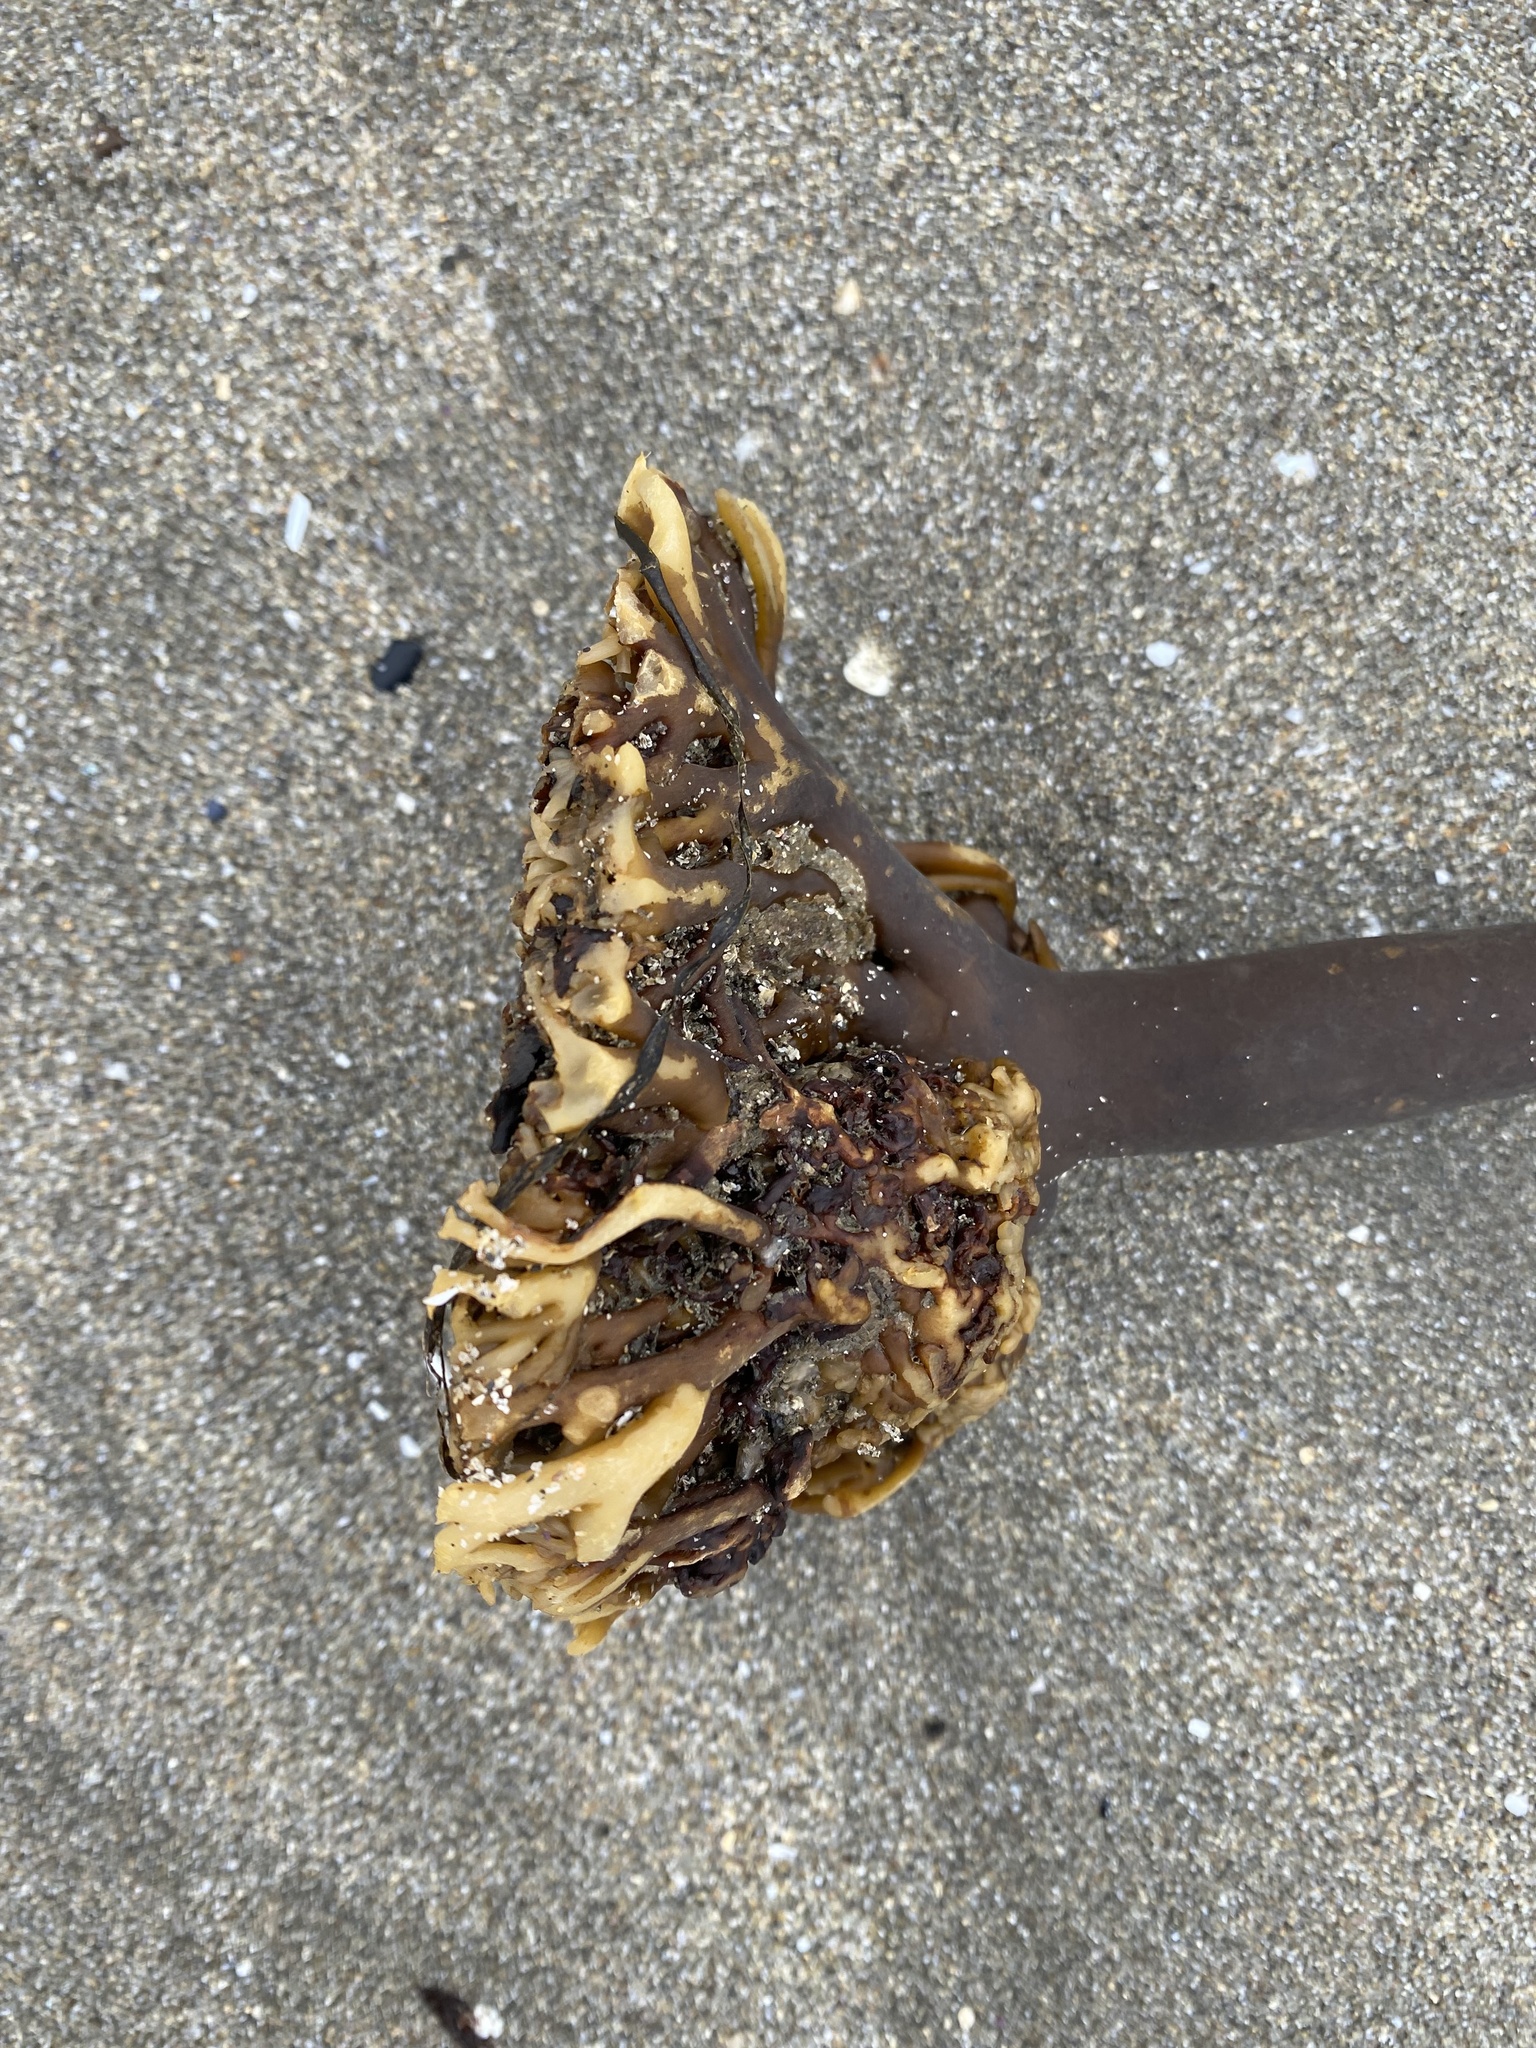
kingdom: Chromista
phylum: Ochrophyta
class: Phaeophyceae
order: Laminariales
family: Alariaceae
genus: Pterygophora
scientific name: Pterygophora californica
